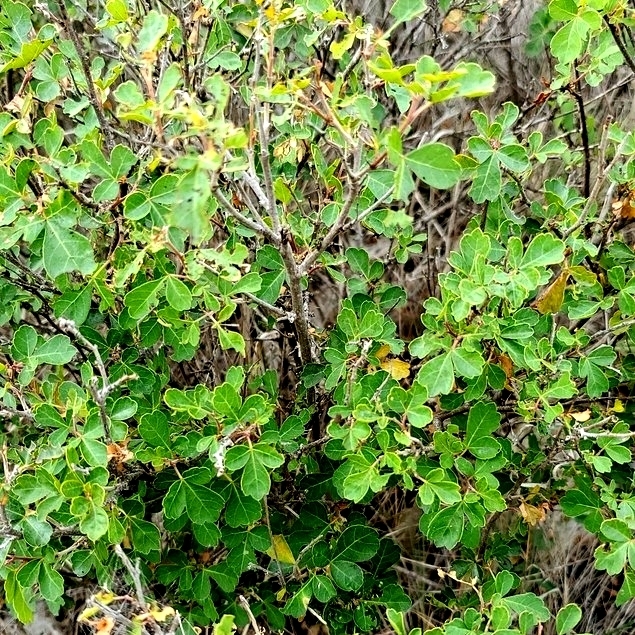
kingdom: Plantae
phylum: Tracheophyta
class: Magnoliopsida
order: Sapindales
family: Anacardiaceae
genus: Rhus
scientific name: Rhus aromatica
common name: Aromatic sumac
